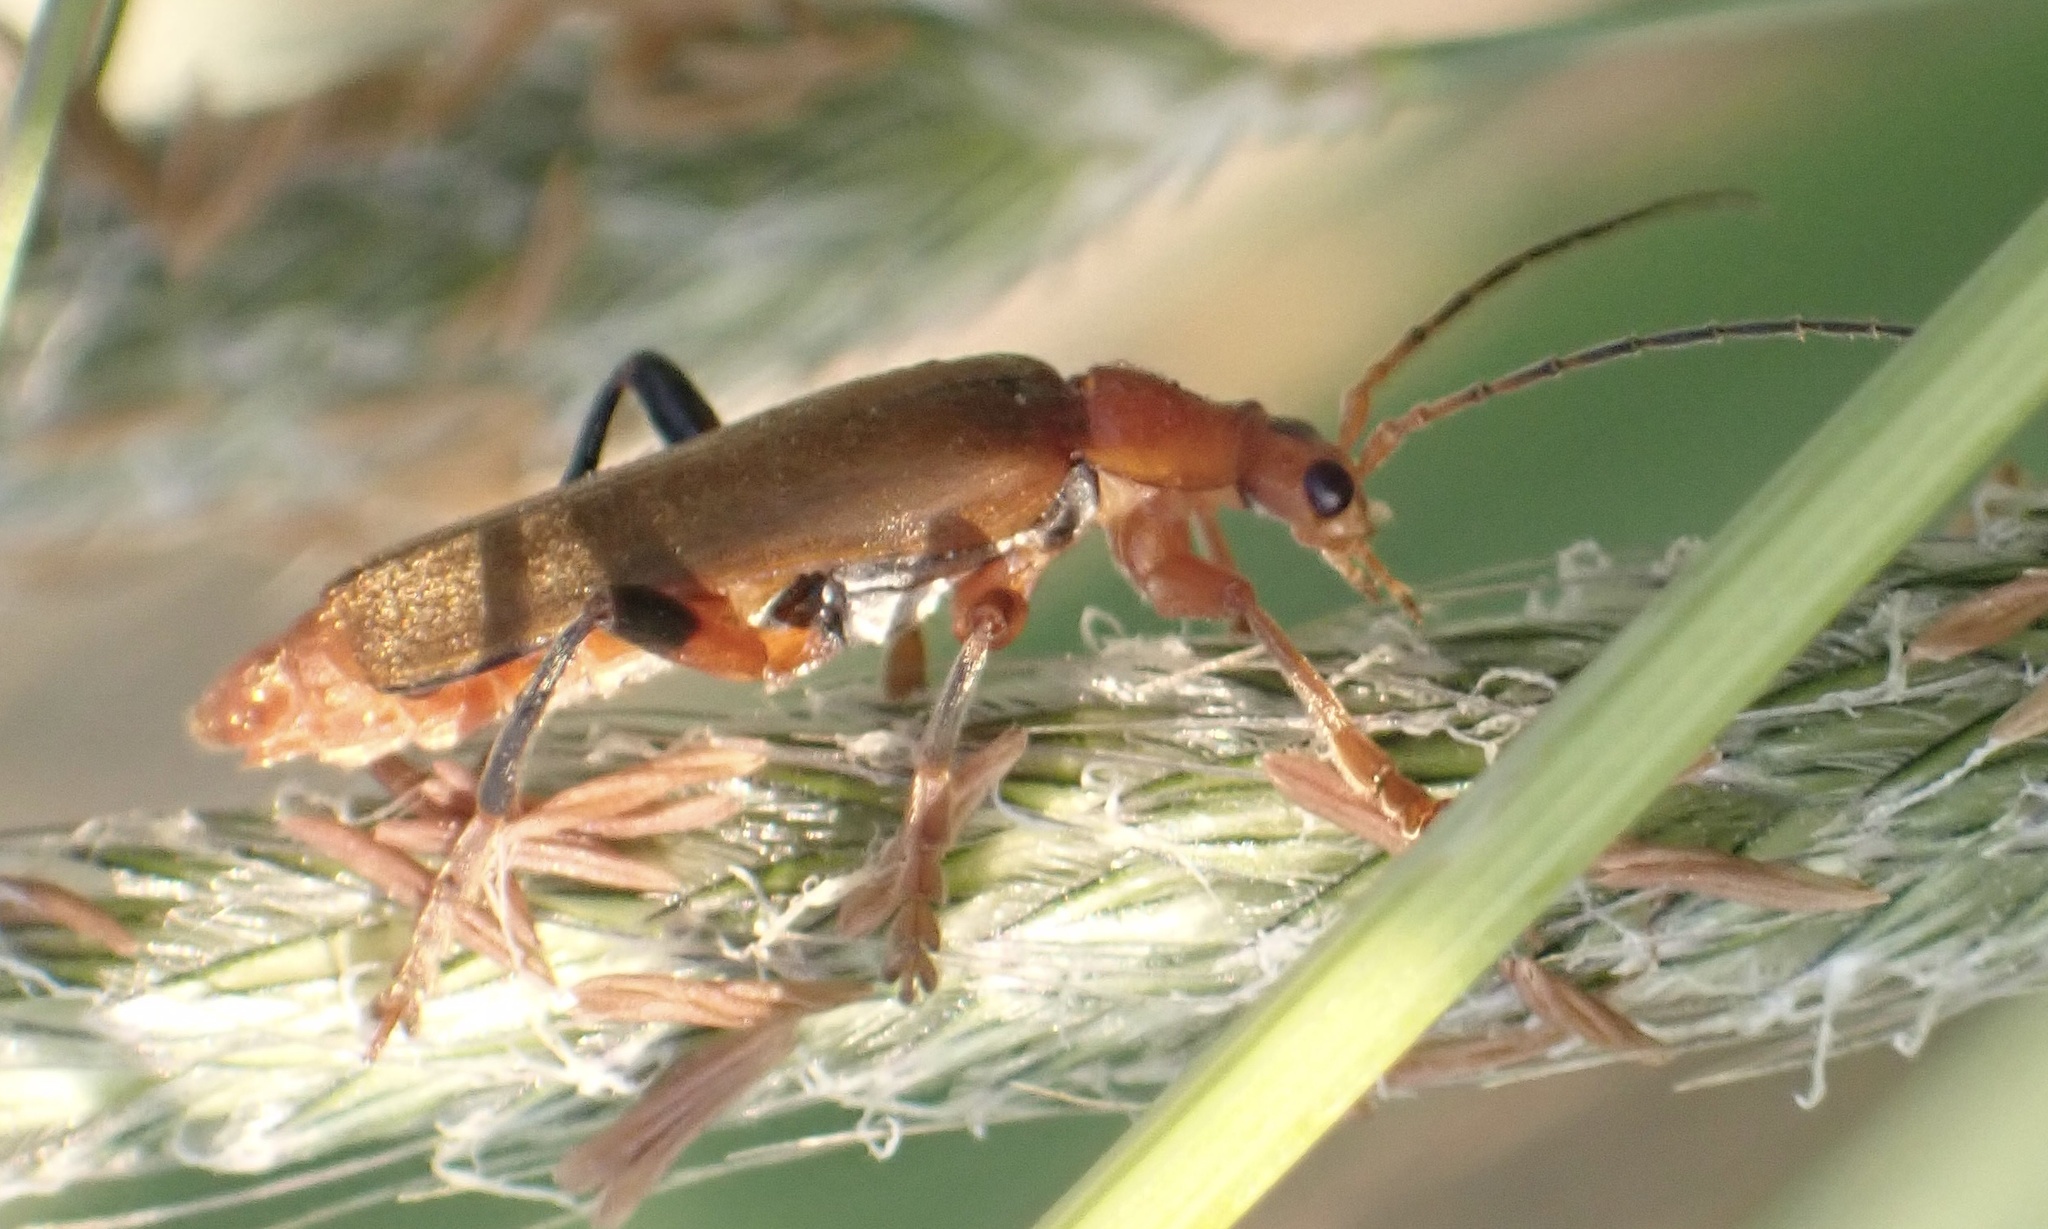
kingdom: Animalia
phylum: Arthropoda
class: Insecta
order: Coleoptera
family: Cantharidae
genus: Cantharis
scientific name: Cantharis livida
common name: Livid soldier beetle
